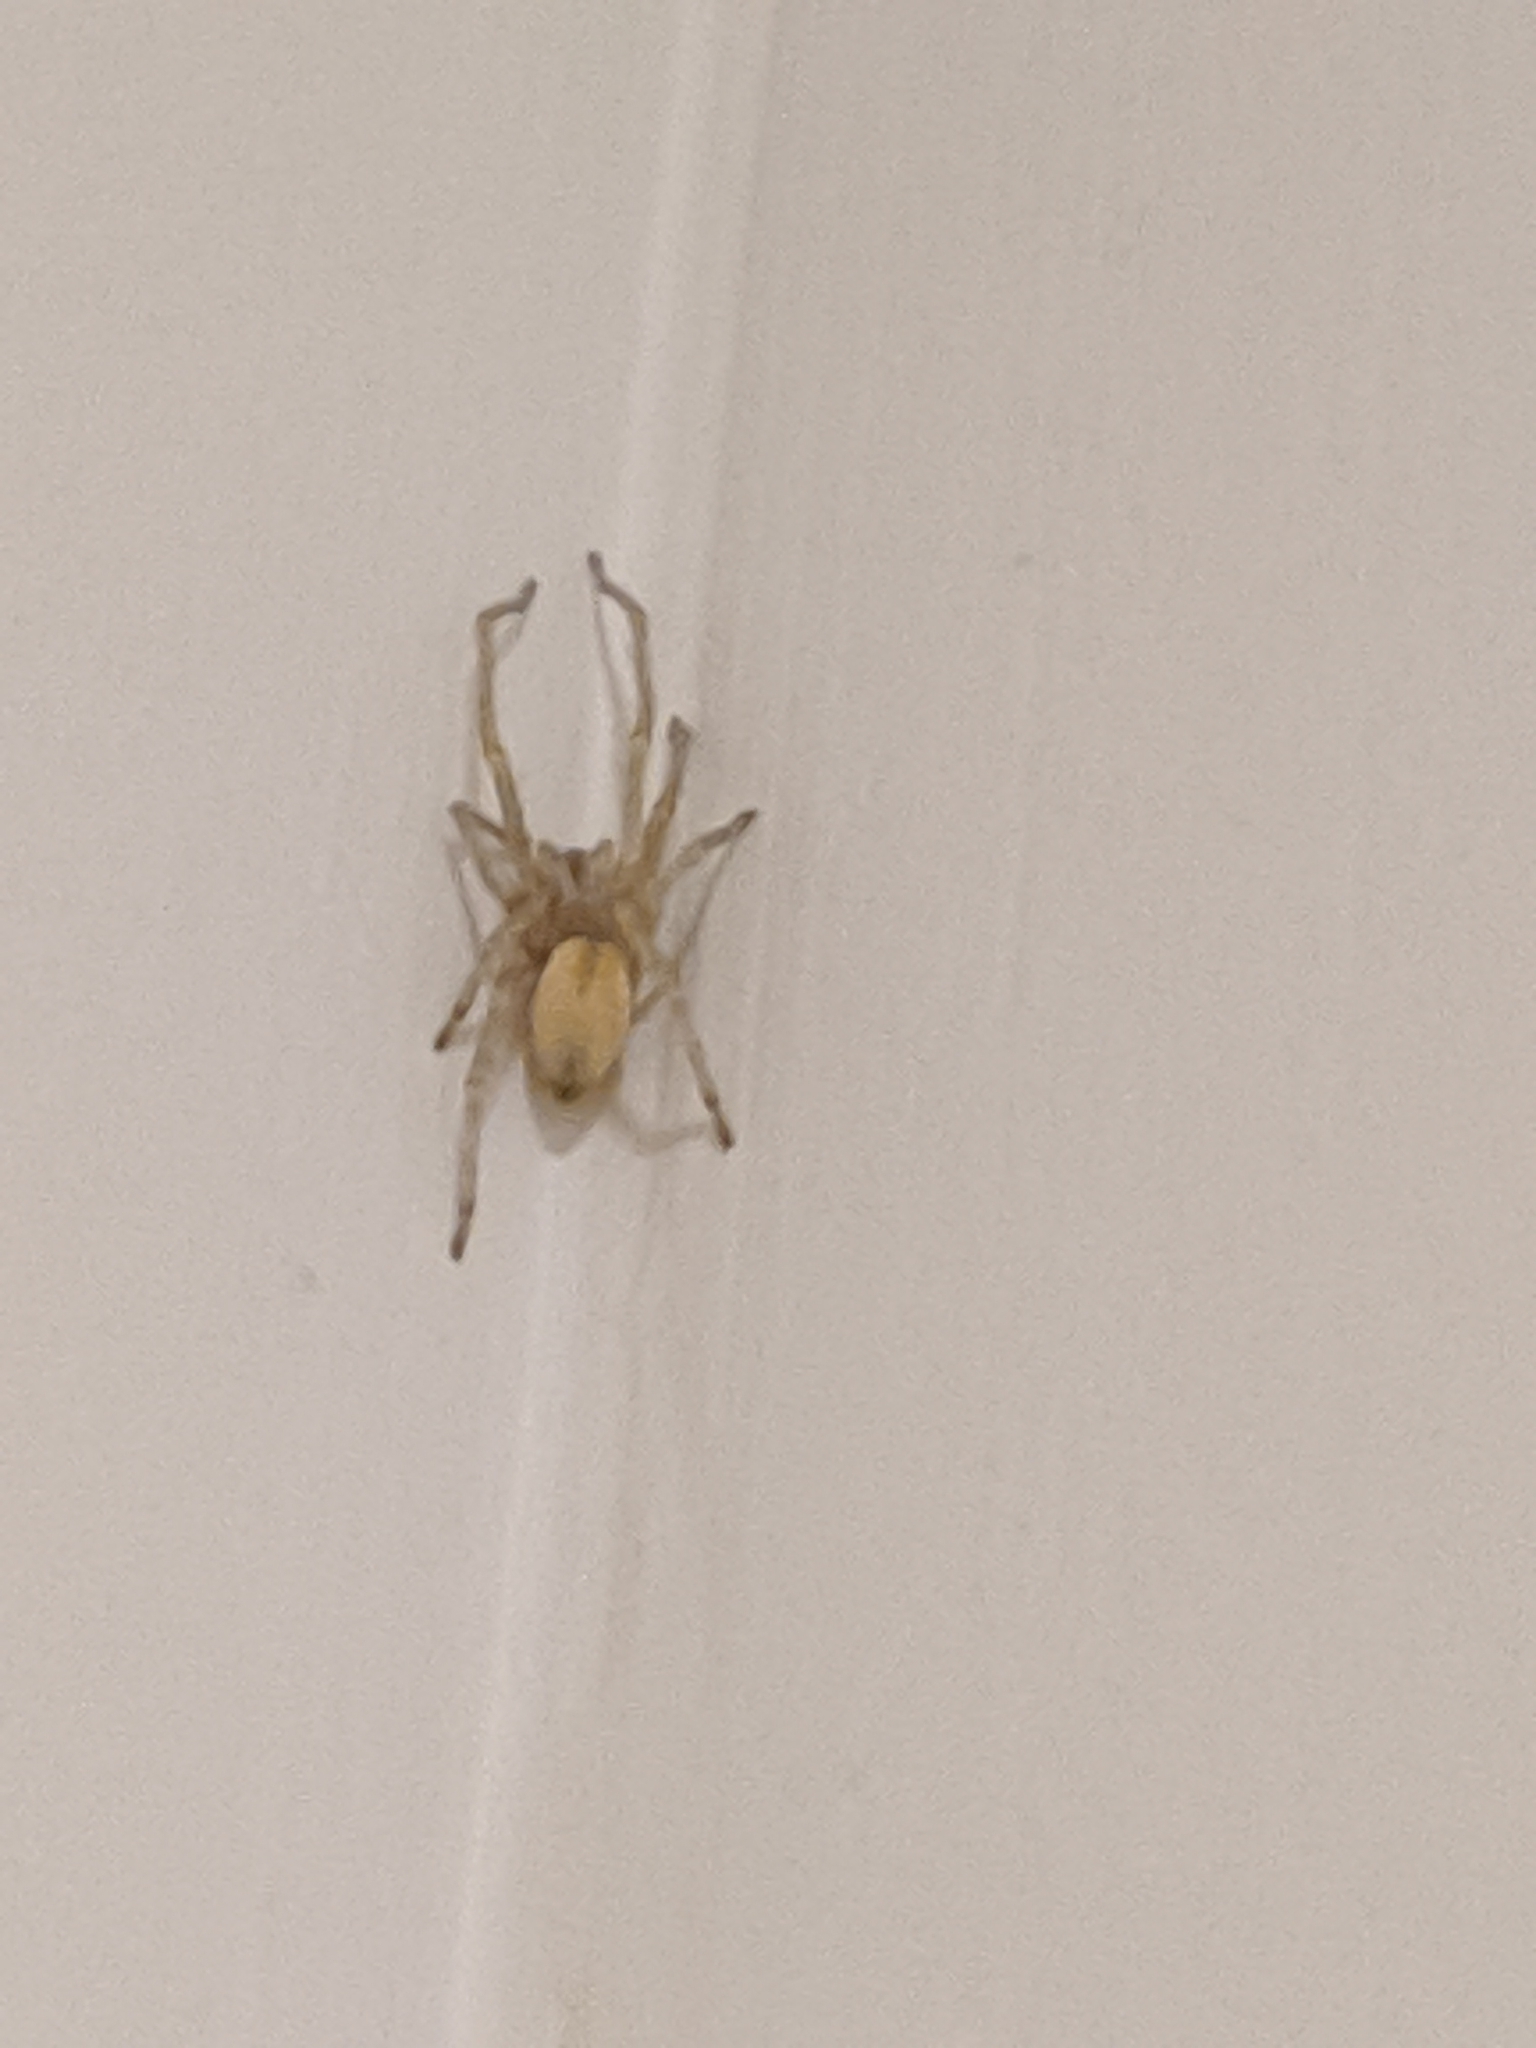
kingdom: Animalia
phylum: Arthropoda
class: Arachnida
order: Araneae
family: Cheiracanthiidae
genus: Cheiracanthium
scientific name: Cheiracanthium
